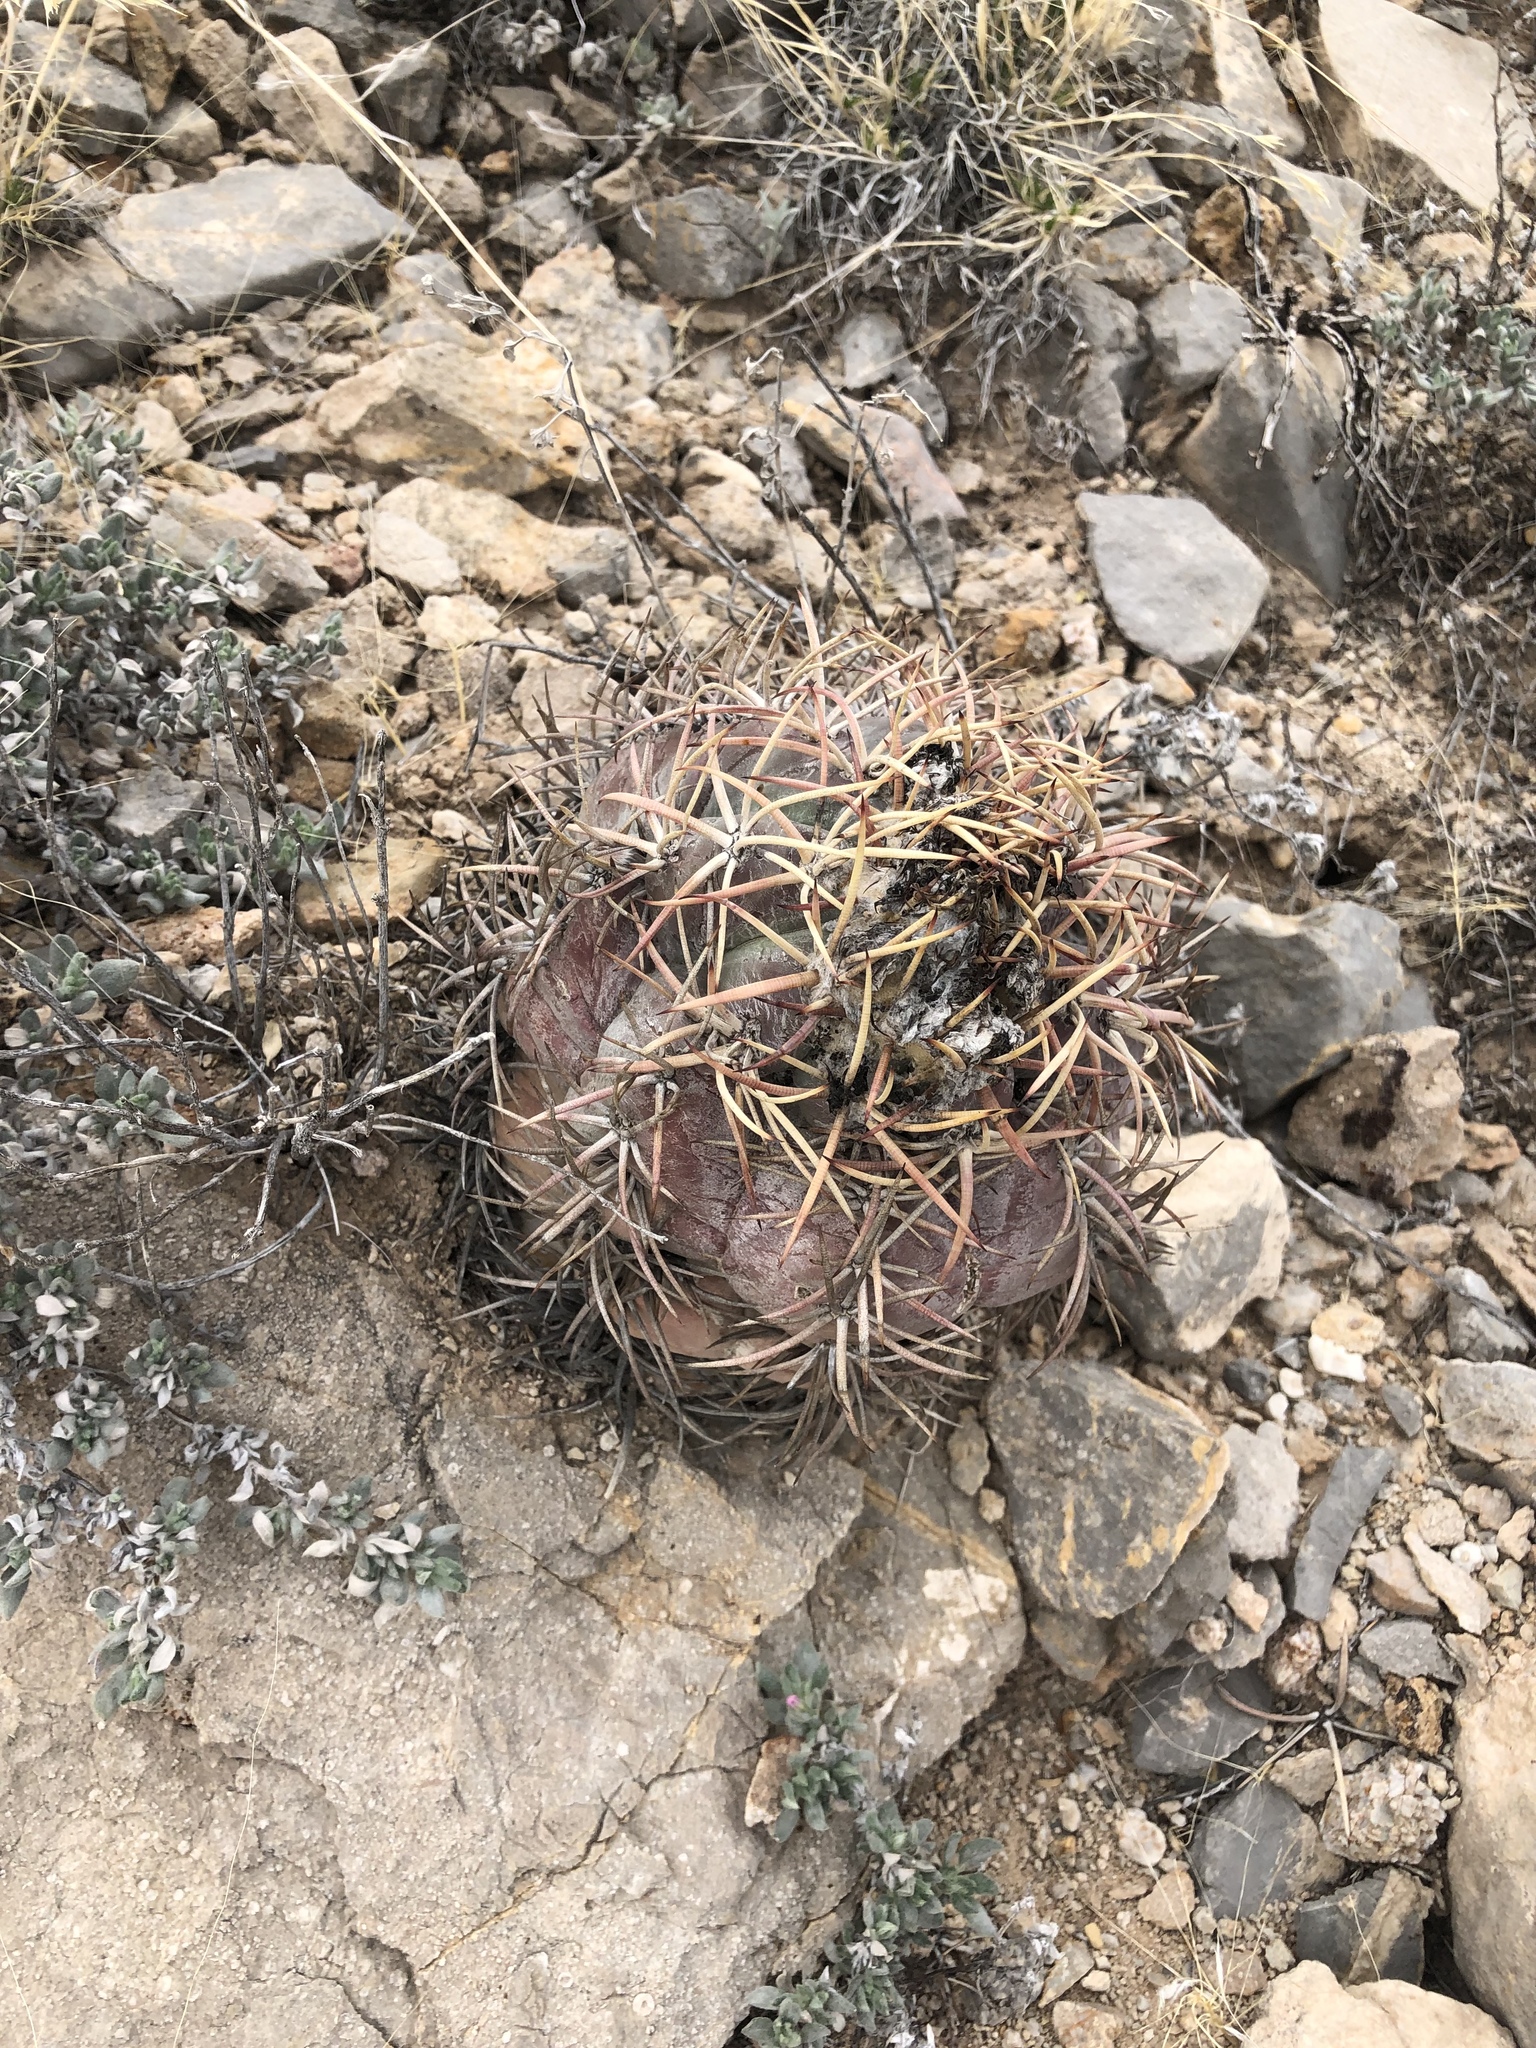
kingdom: Plantae
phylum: Tracheophyta
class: Magnoliopsida
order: Caryophyllales
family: Cactaceae
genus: Echinocactus
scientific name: Echinocactus horizonthalonius
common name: Devilshead
